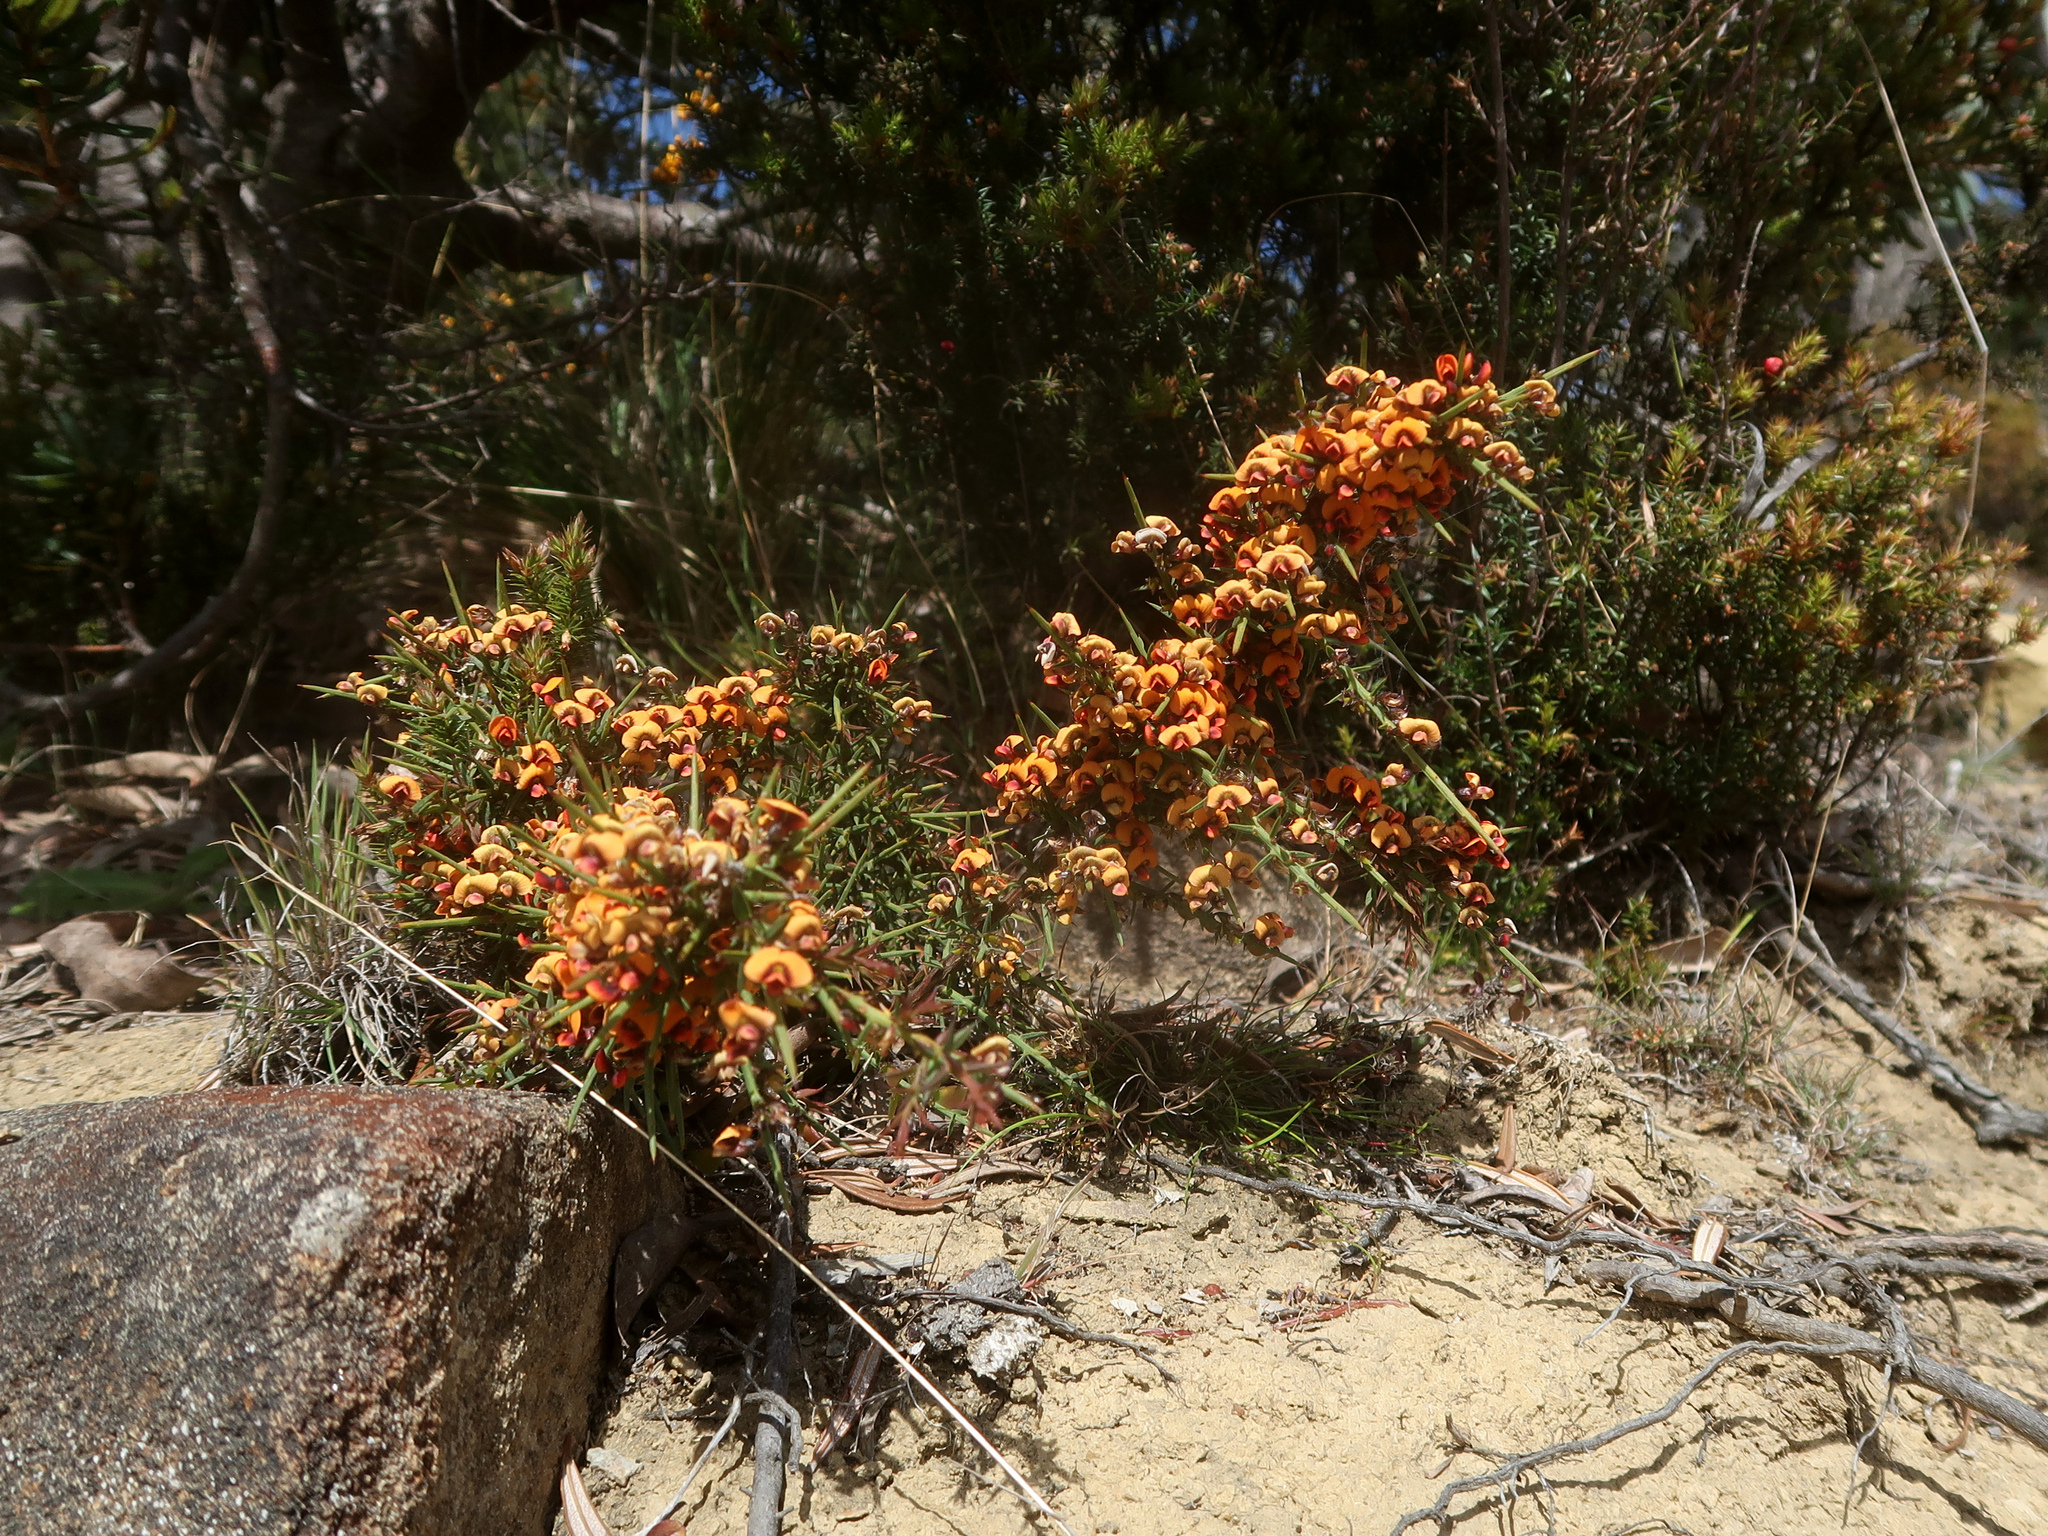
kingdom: Plantae
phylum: Tracheophyta
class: Magnoliopsida
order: Fabales
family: Fabaceae
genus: Daviesia
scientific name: Daviesia ulicifolia
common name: Gorse bitter-pea
